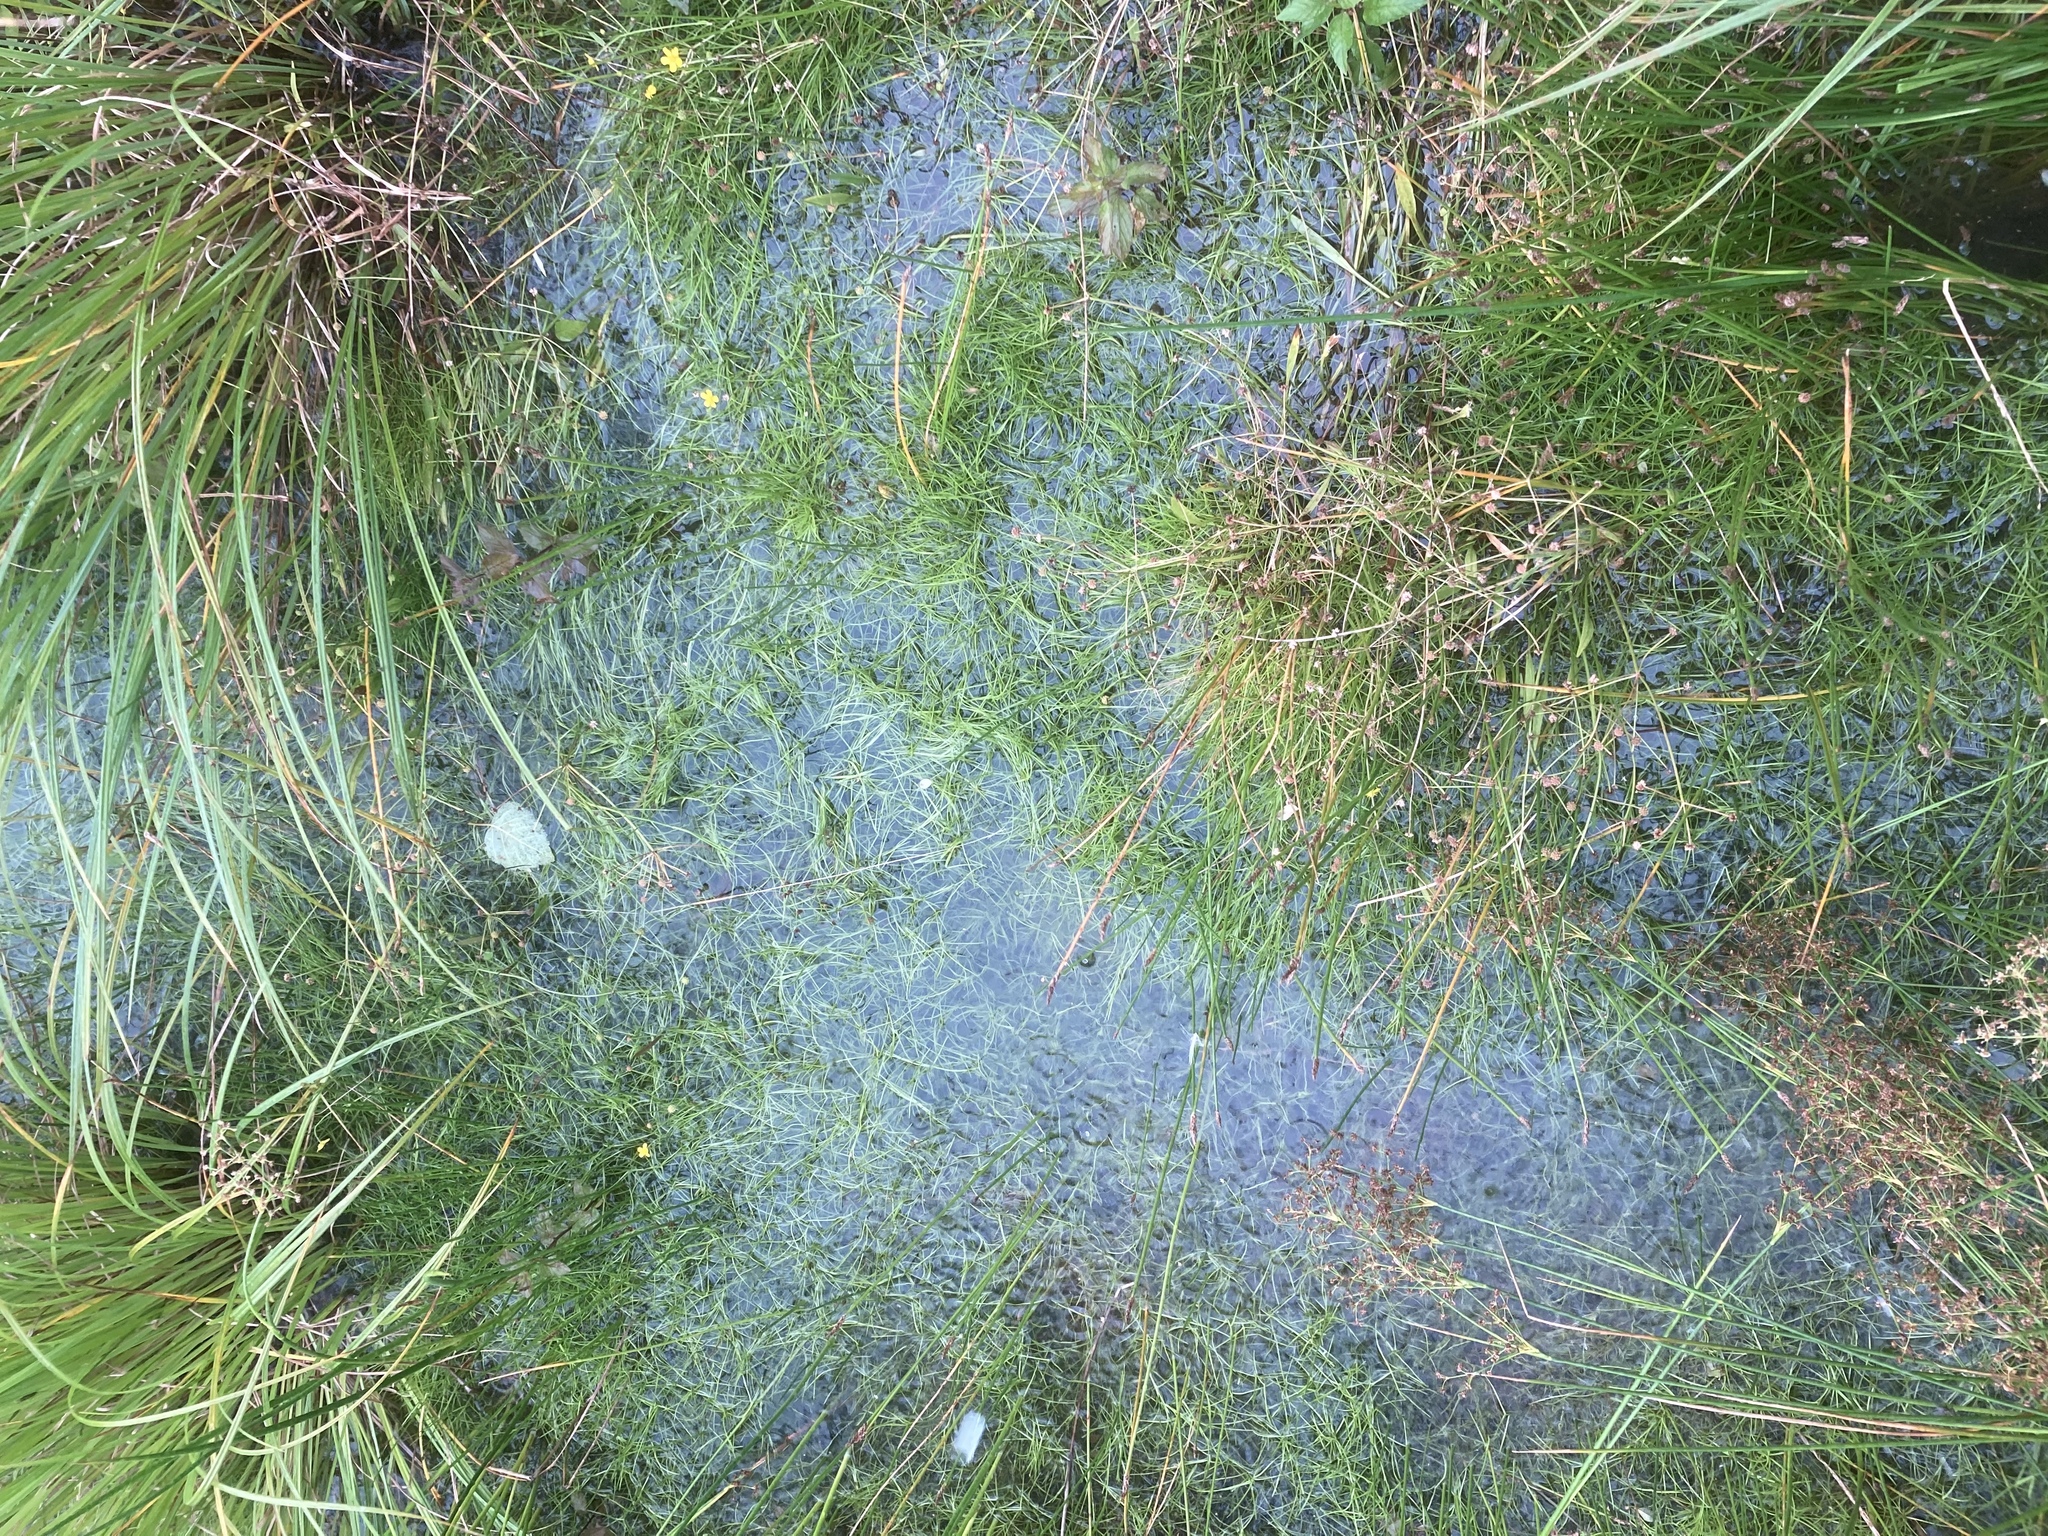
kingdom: Plantae
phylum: Tracheophyta
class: Liliopsida
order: Poales
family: Juncaceae
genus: Juncus
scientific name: Juncus effusus
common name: Soft rush
